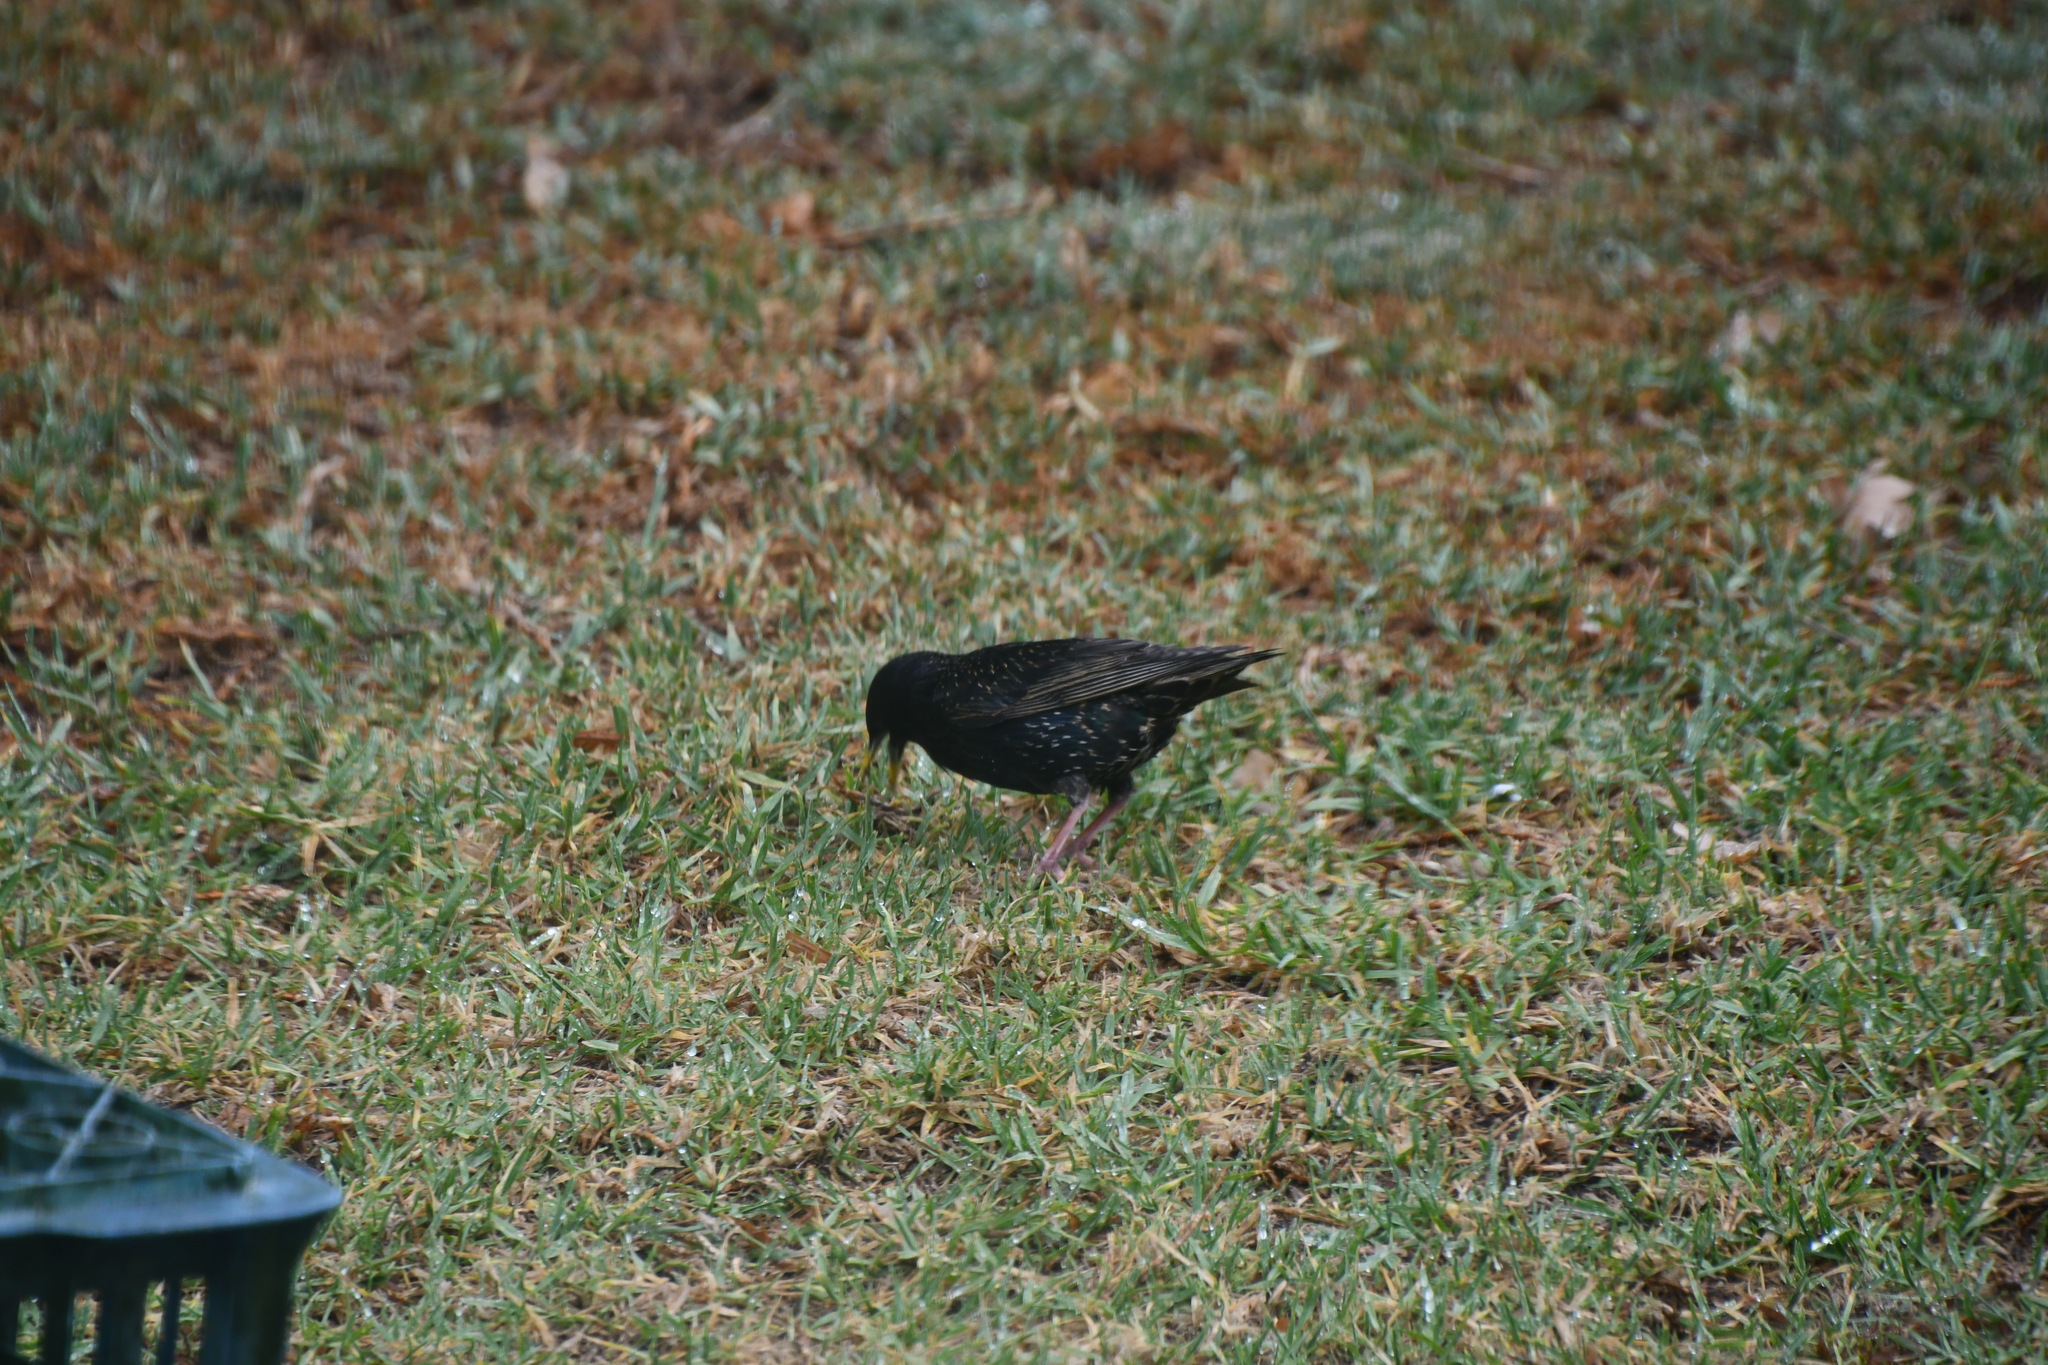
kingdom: Animalia
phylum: Chordata
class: Aves
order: Passeriformes
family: Sturnidae
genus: Sturnus
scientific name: Sturnus vulgaris
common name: Common starling
